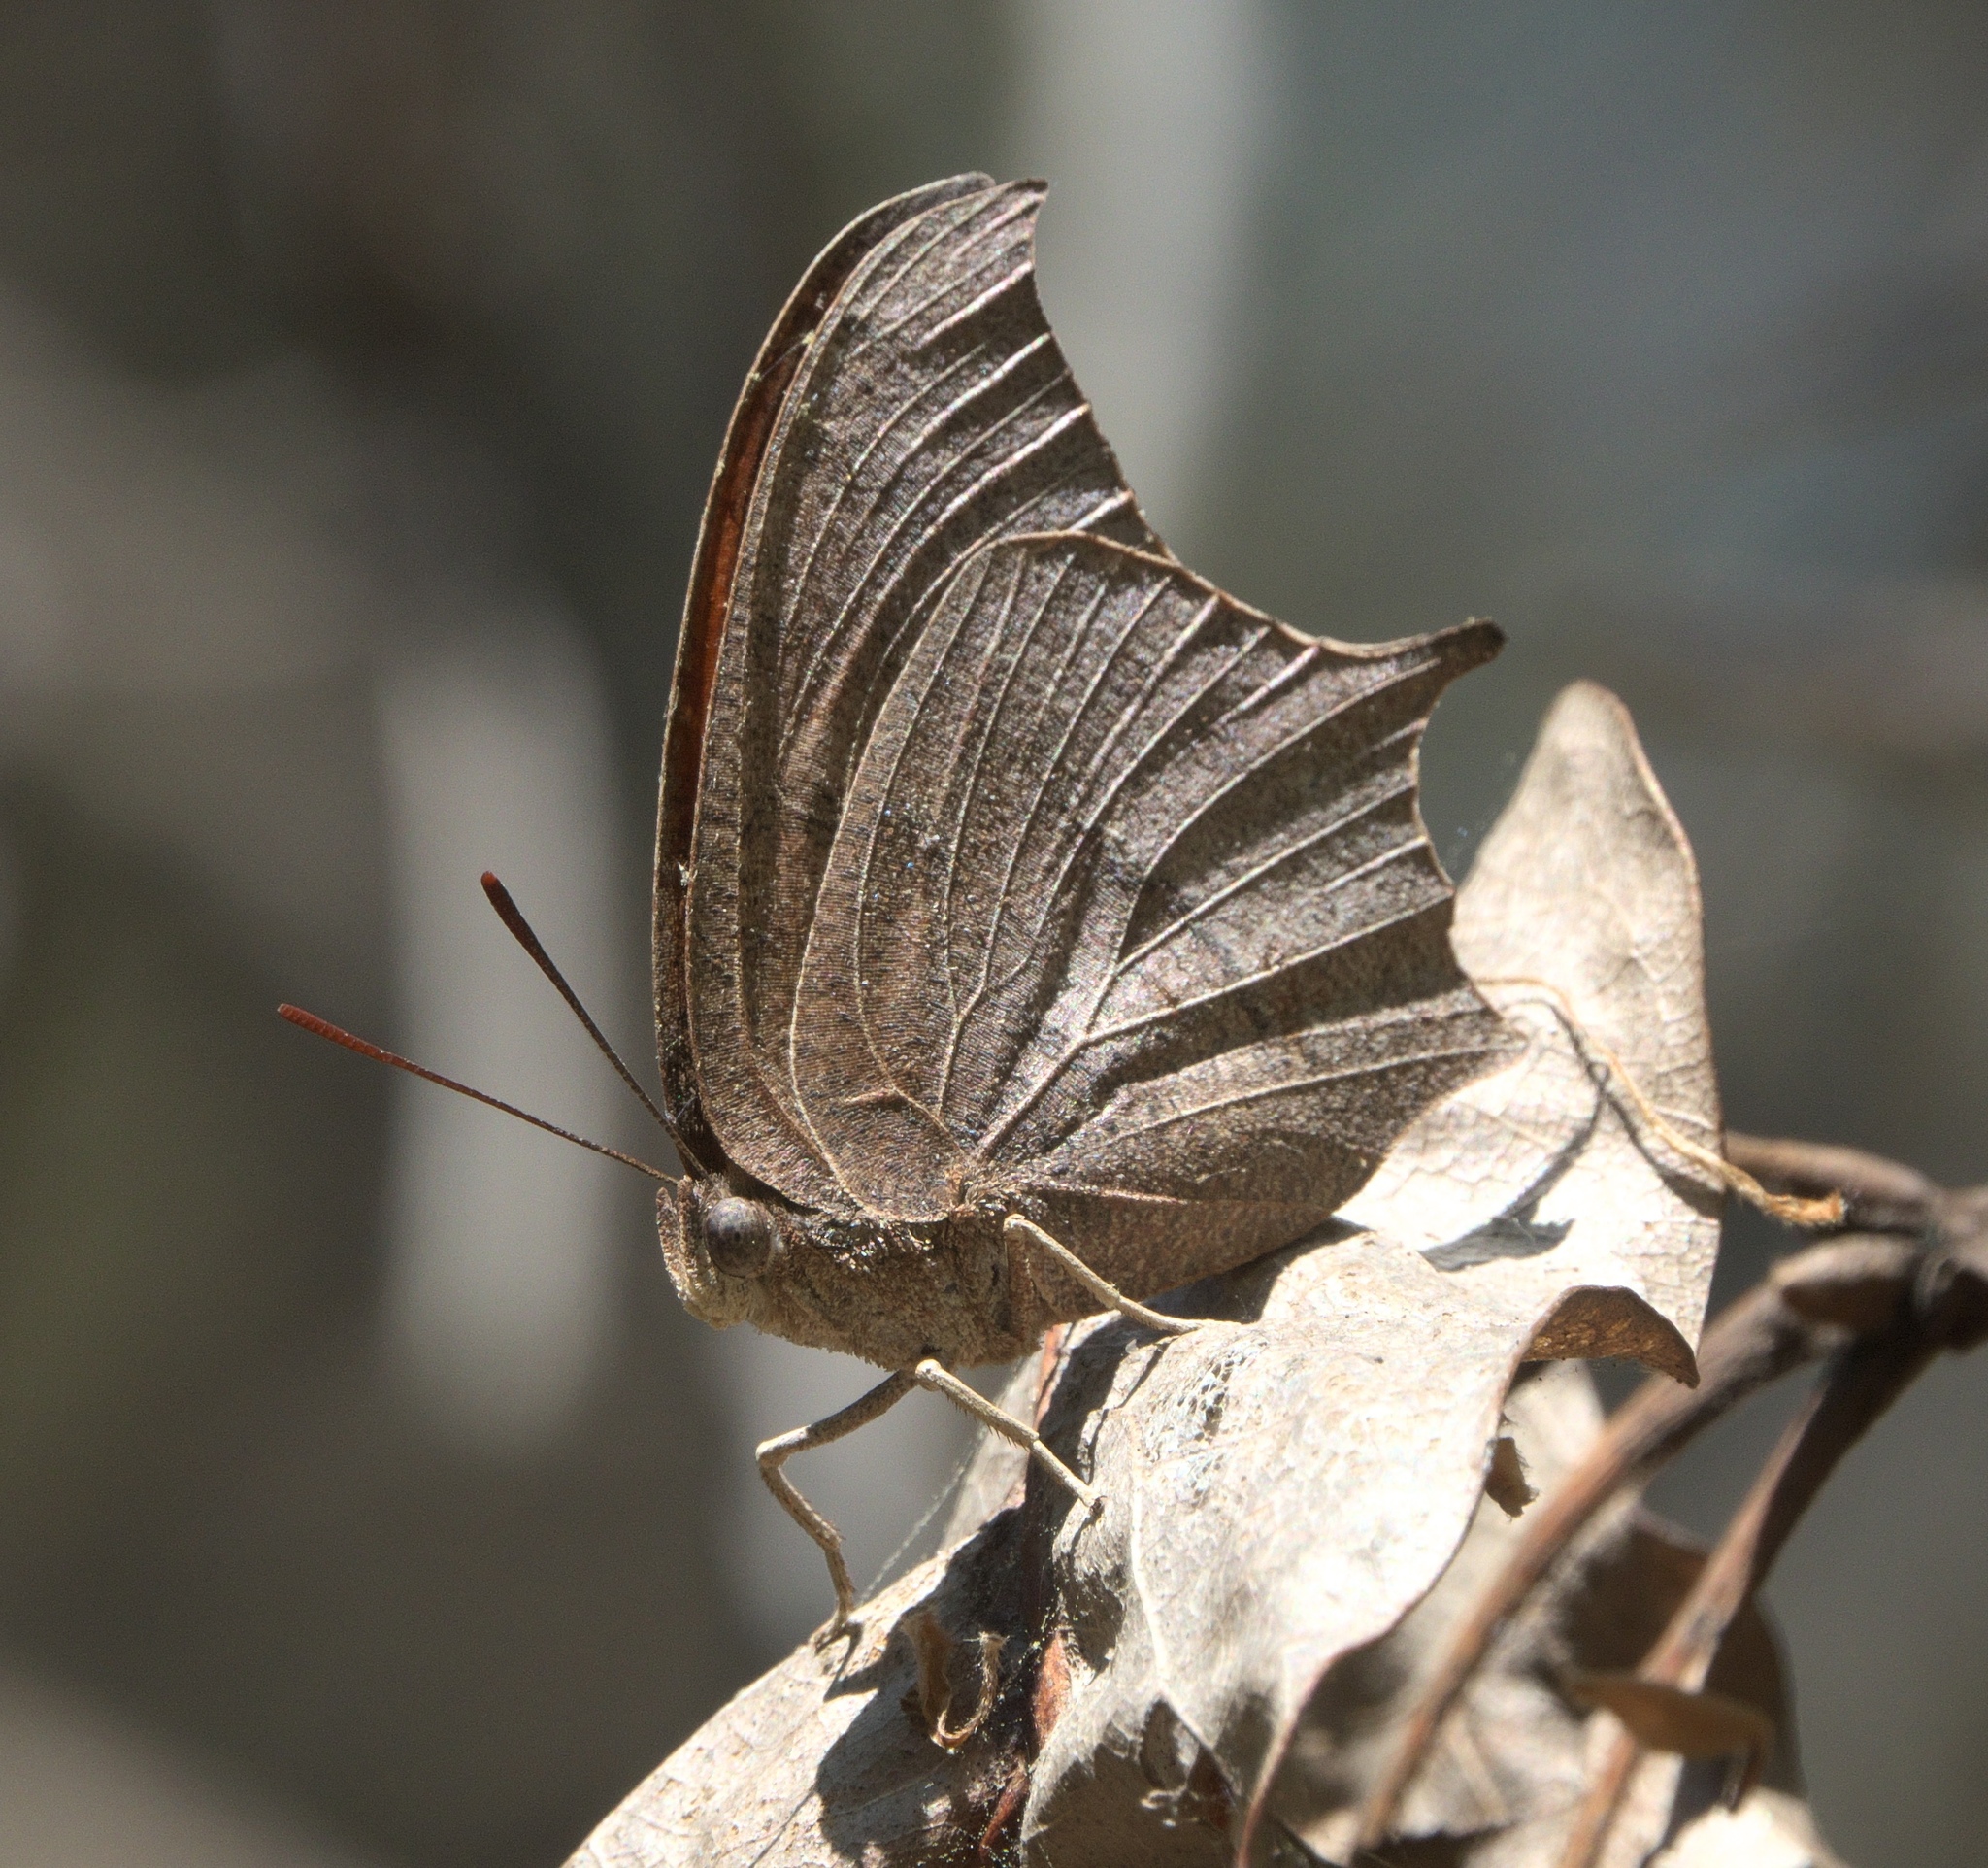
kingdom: Animalia
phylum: Arthropoda
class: Insecta
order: Lepidoptera
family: Nymphalidae
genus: Anaea
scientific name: Anaea andria
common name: Goatweed leafwing
